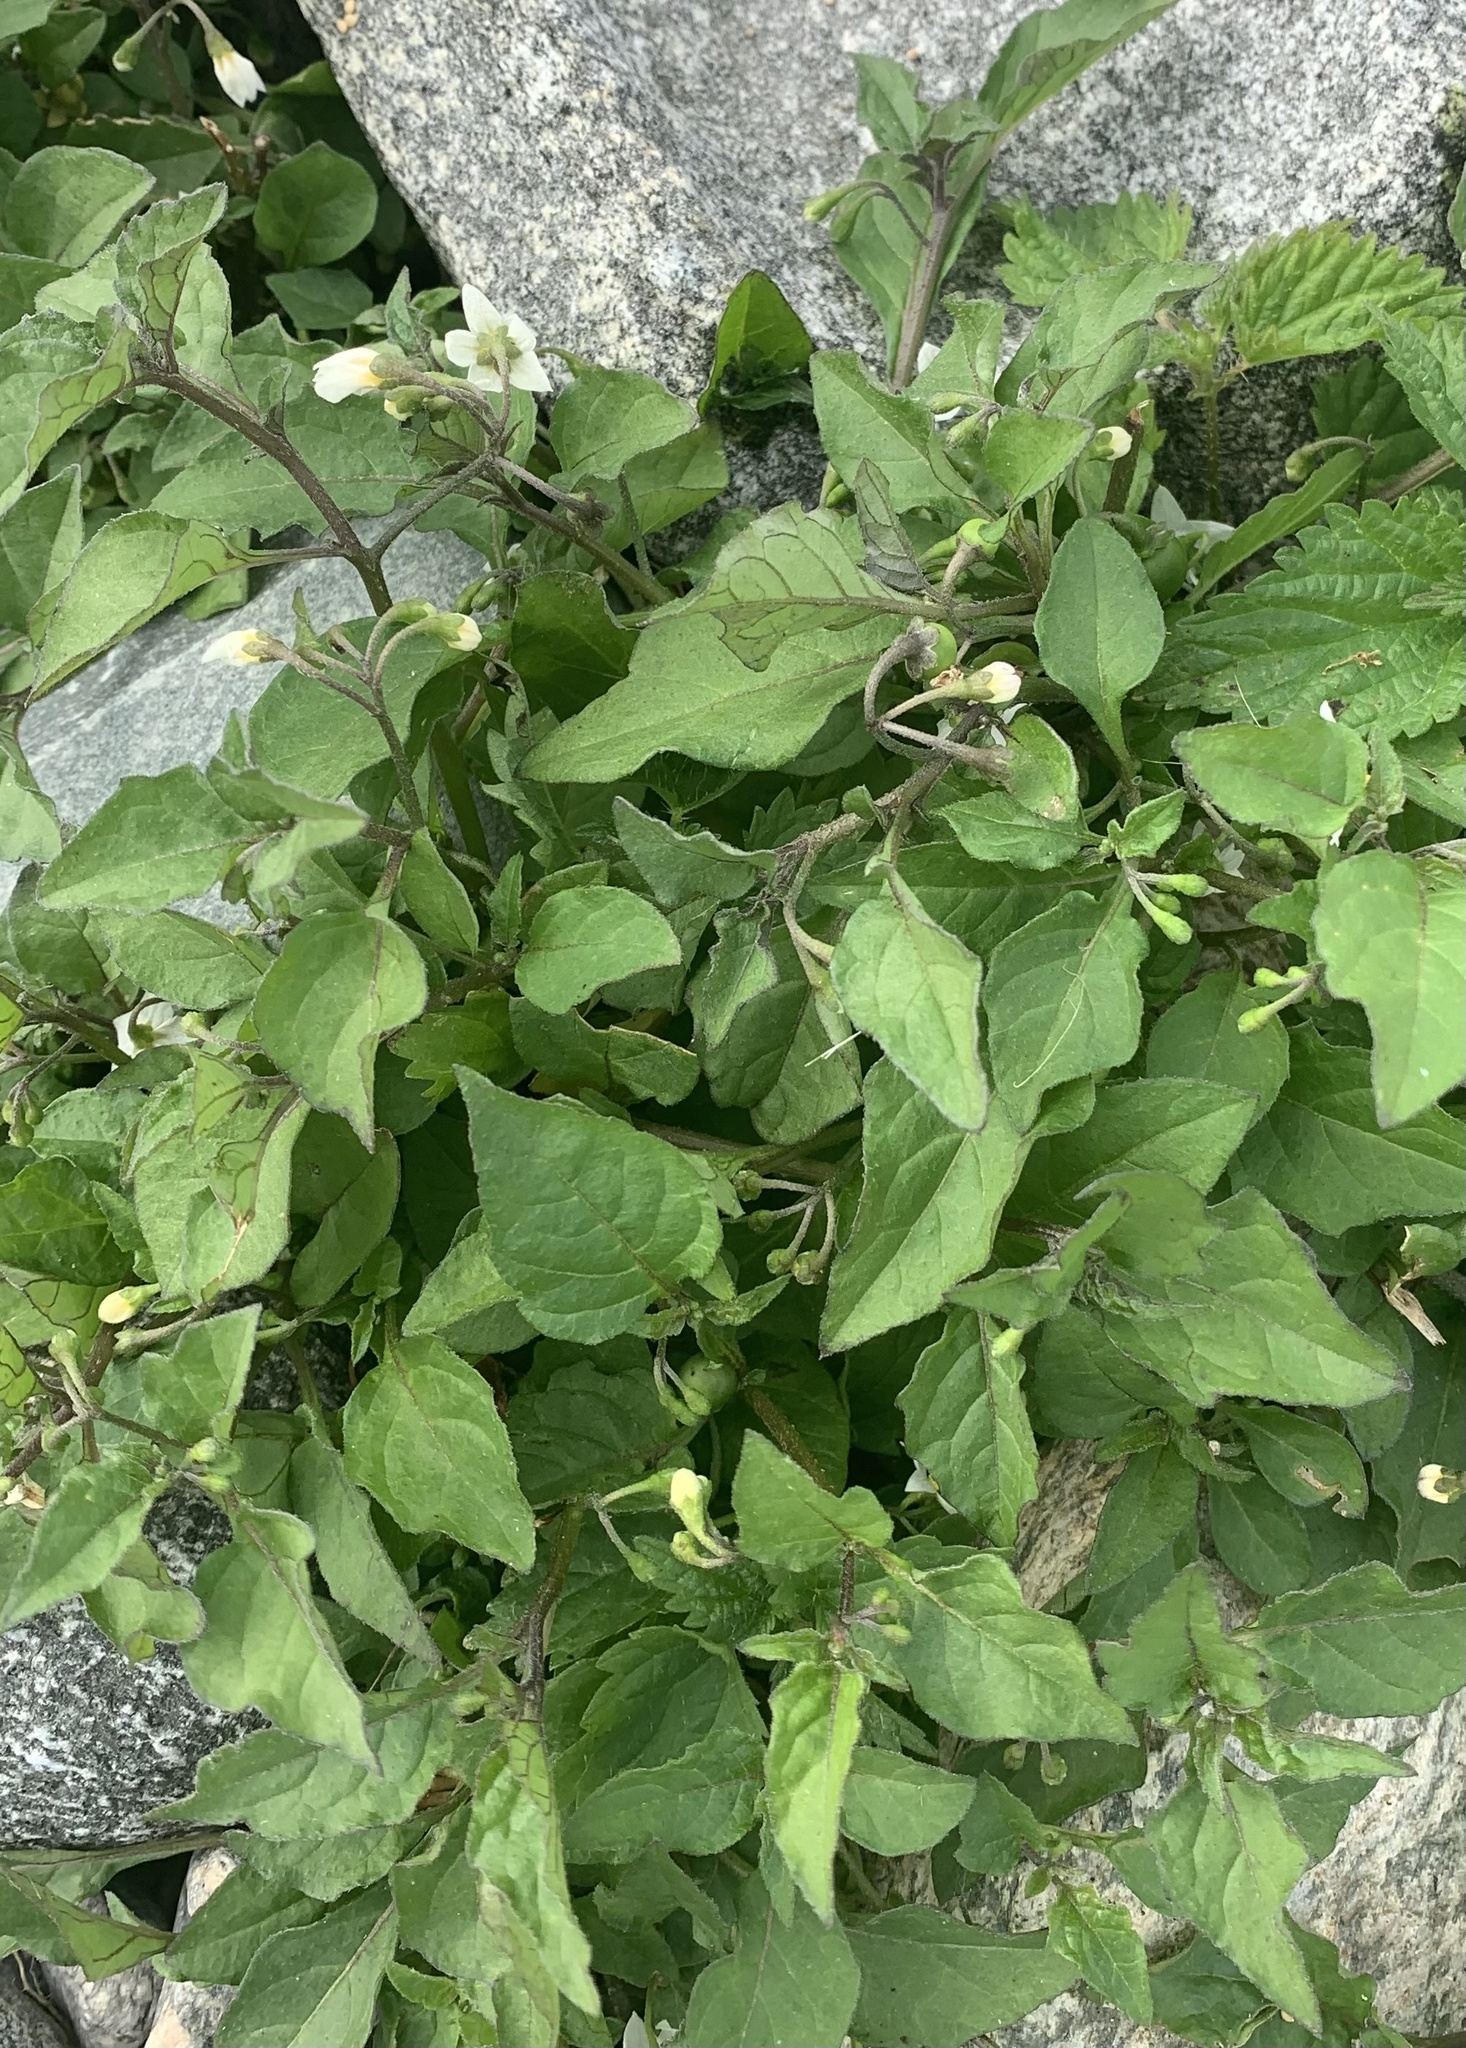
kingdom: Plantae
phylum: Tracheophyta
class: Magnoliopsida
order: Solanales
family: Solanaceae
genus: Solanum
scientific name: Solanum emulans
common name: Eastern black nightshade
